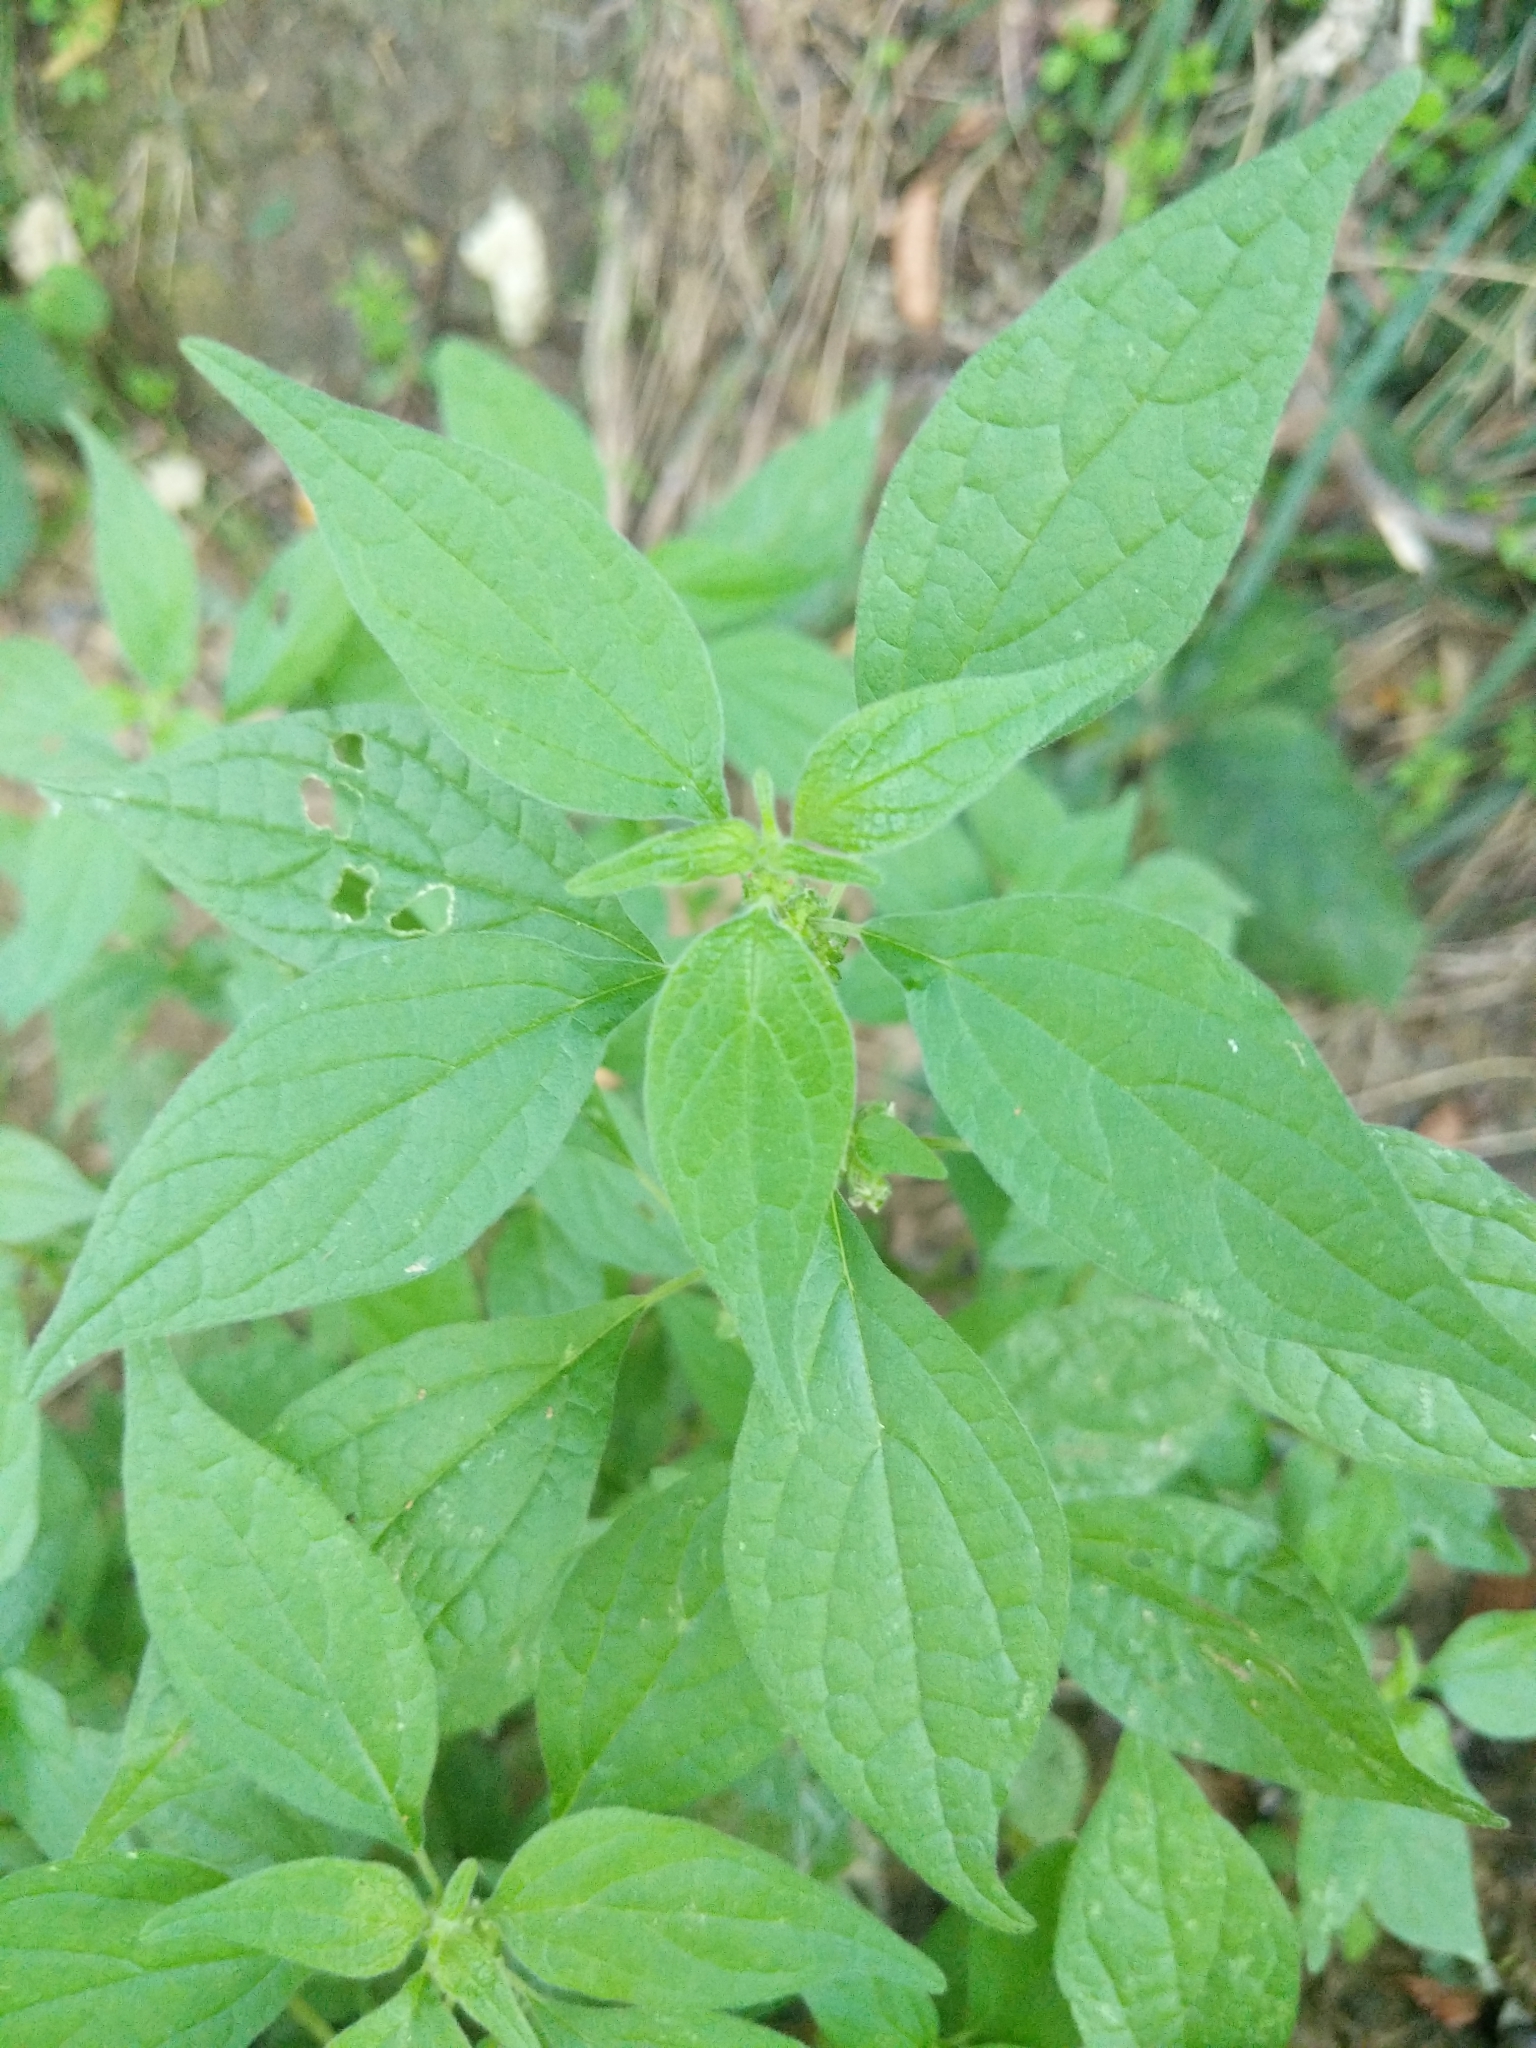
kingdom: Plantae
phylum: Tracheophyta
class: Magnoliopsida
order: Rosales
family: Urticaceae
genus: Parietaria
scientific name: Parietaria officinalis
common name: Eastern pellitory-of-the-wall
